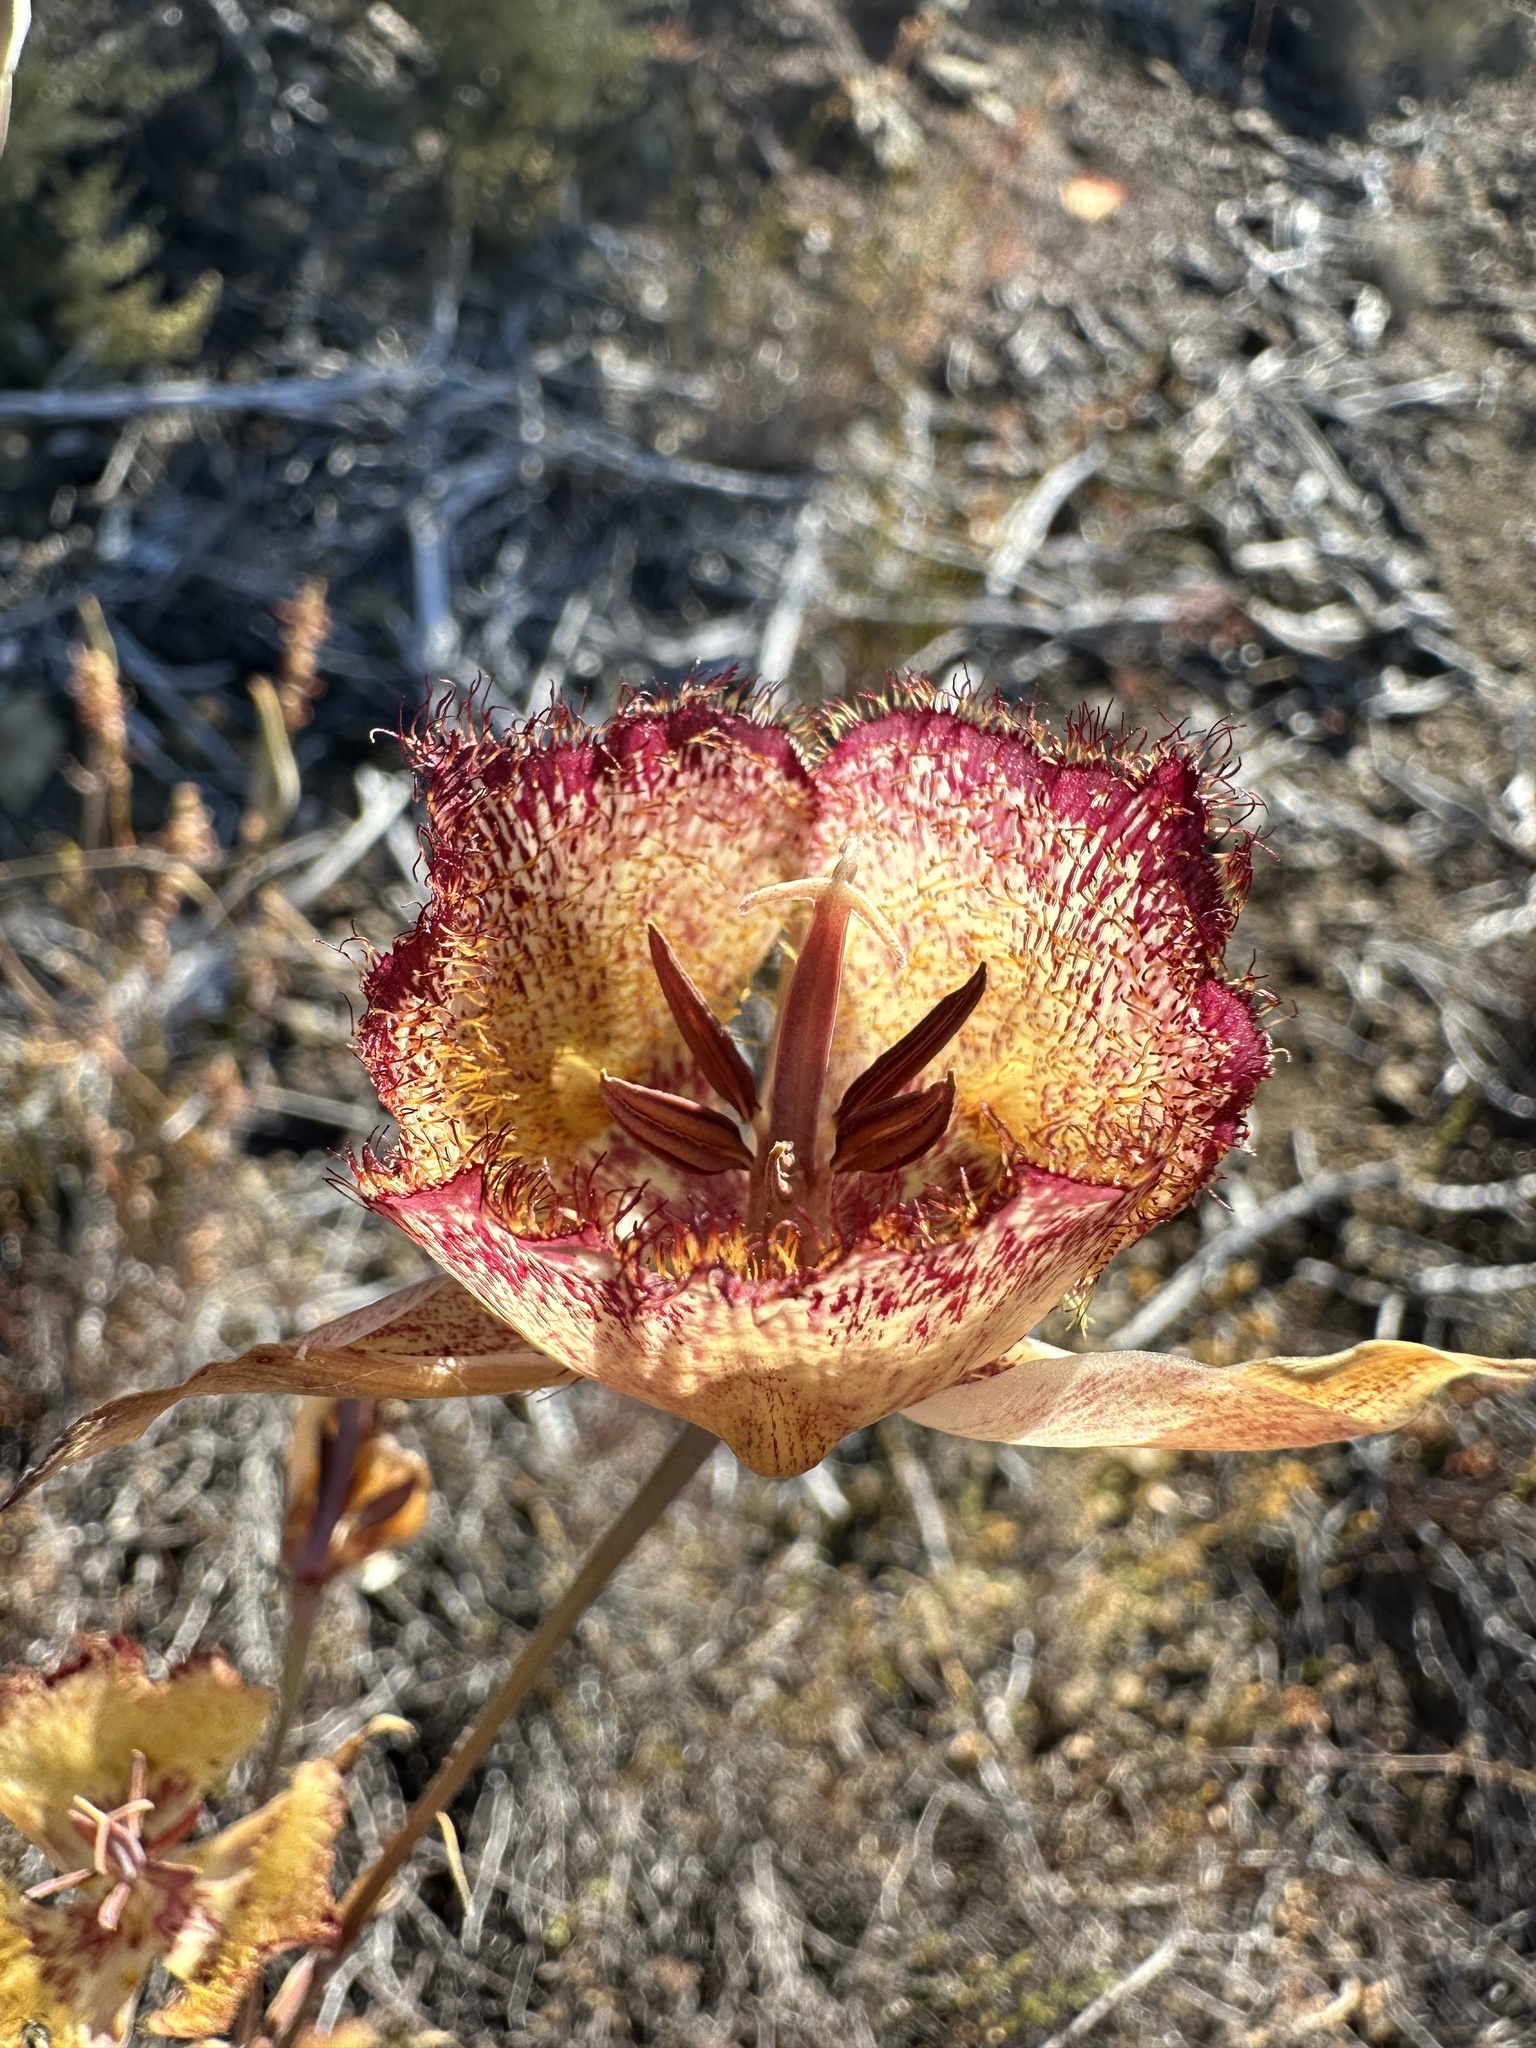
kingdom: Plantae
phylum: Tracheophyta
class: Liliopsida
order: Liliales
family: Liliaceae
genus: Calochortus
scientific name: Calochortus fimbriatus
